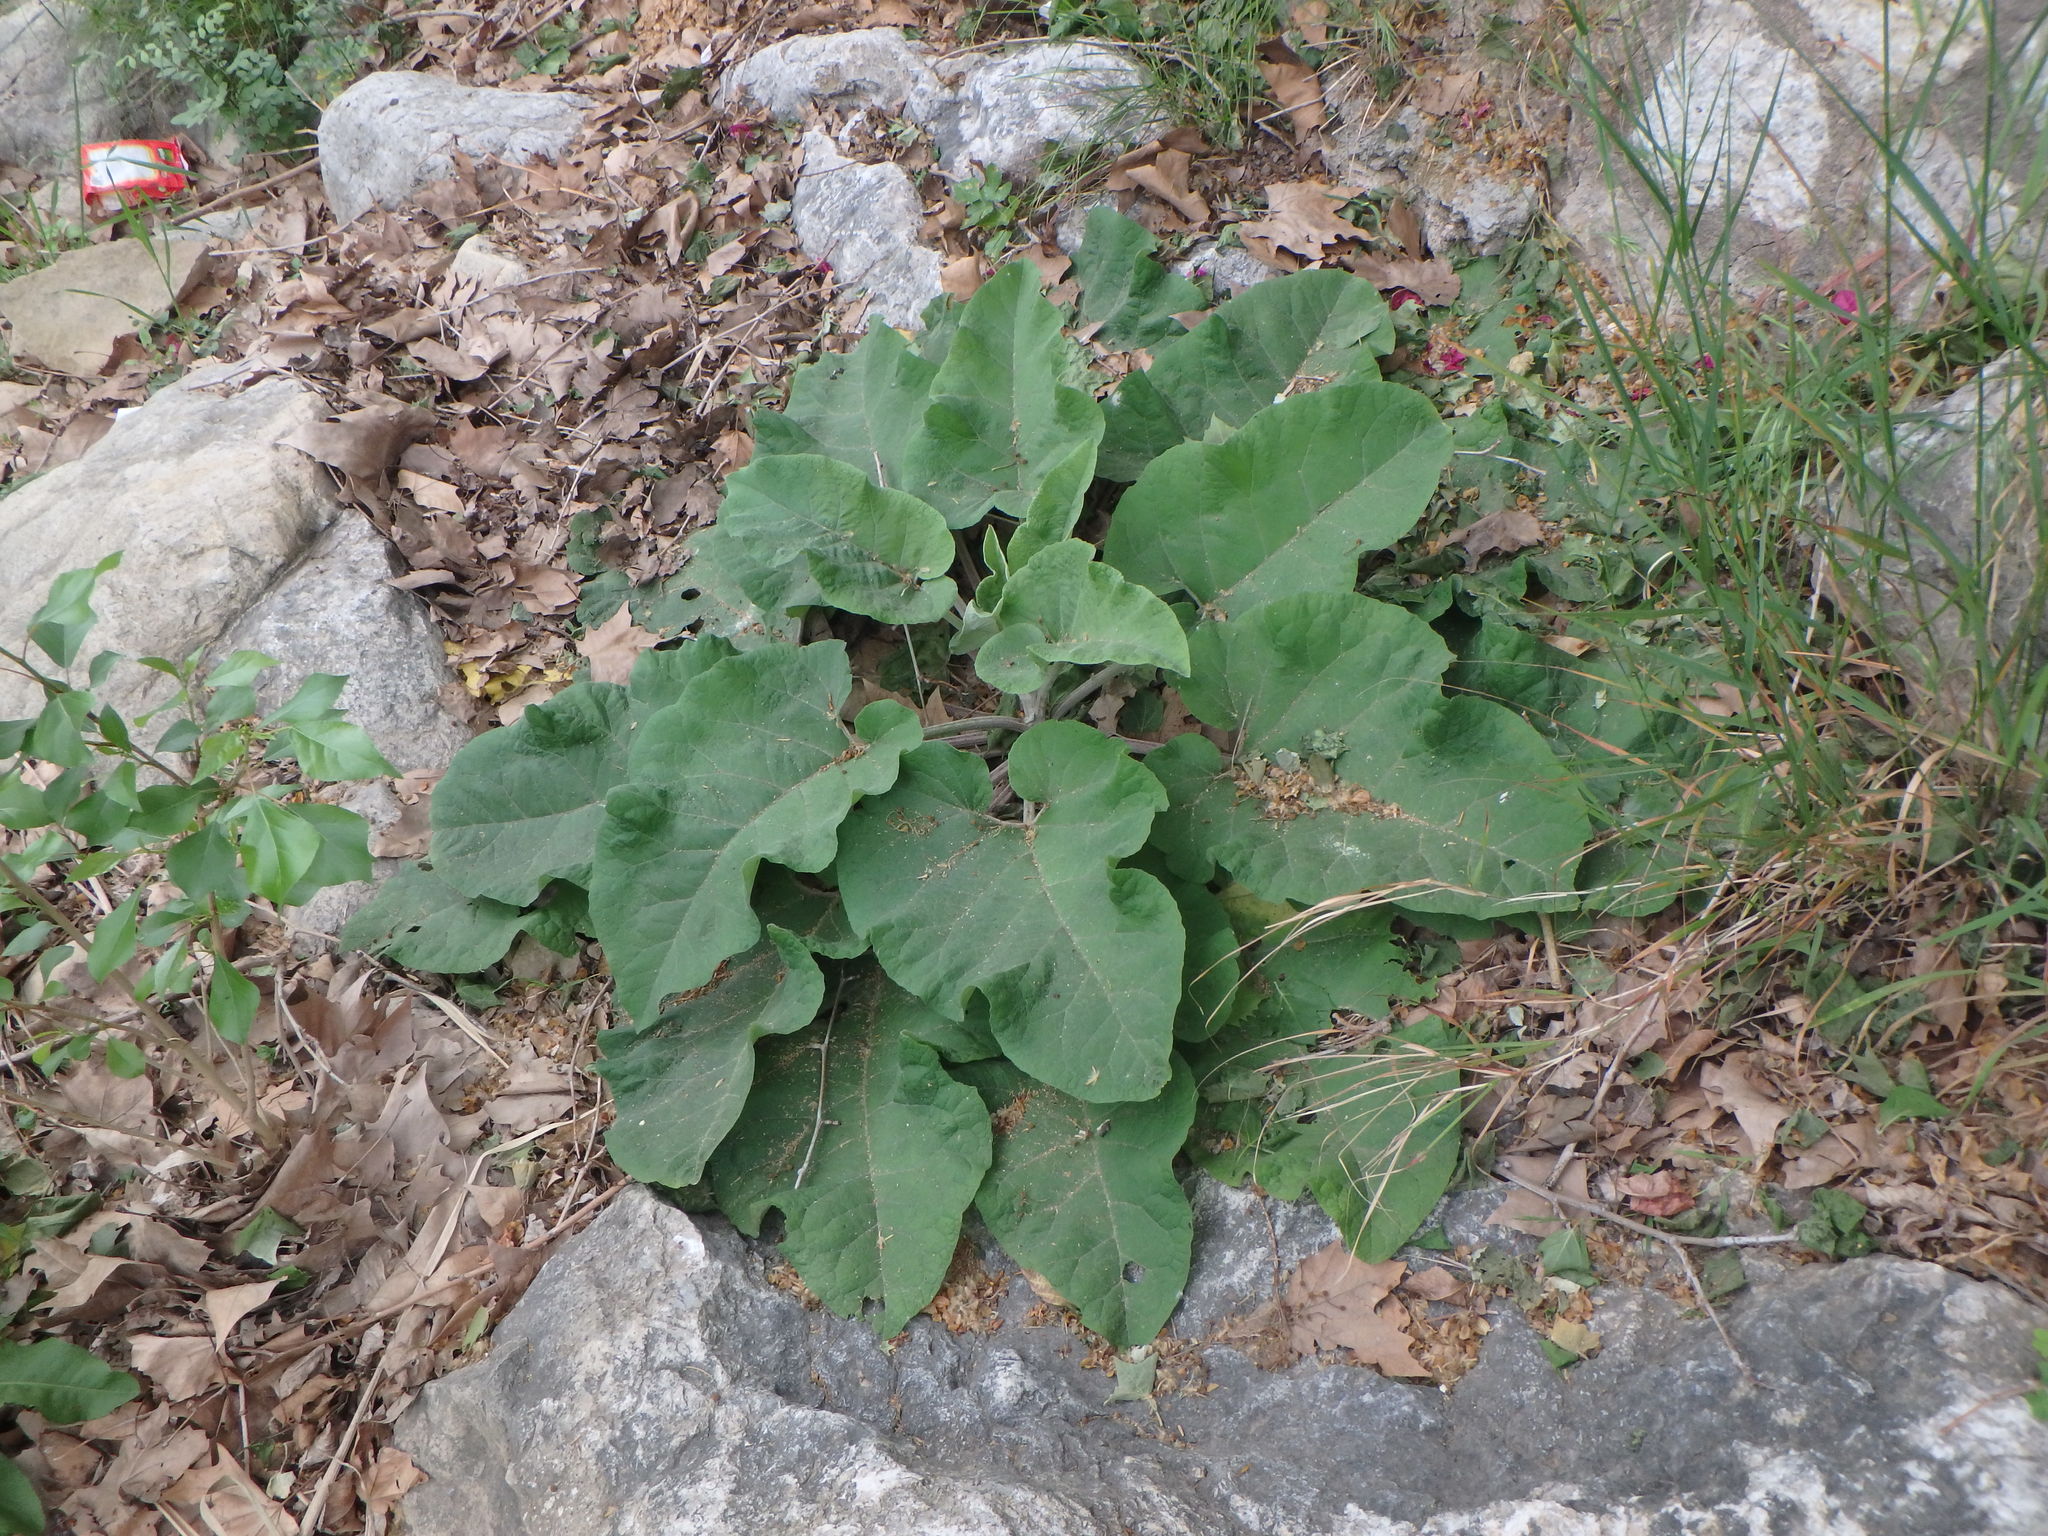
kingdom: Plantae
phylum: Tracheophyta
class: Magnoliopsida
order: Asterales
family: Asteraceae
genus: Arctium
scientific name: Arctium minus
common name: Lesser burdock
